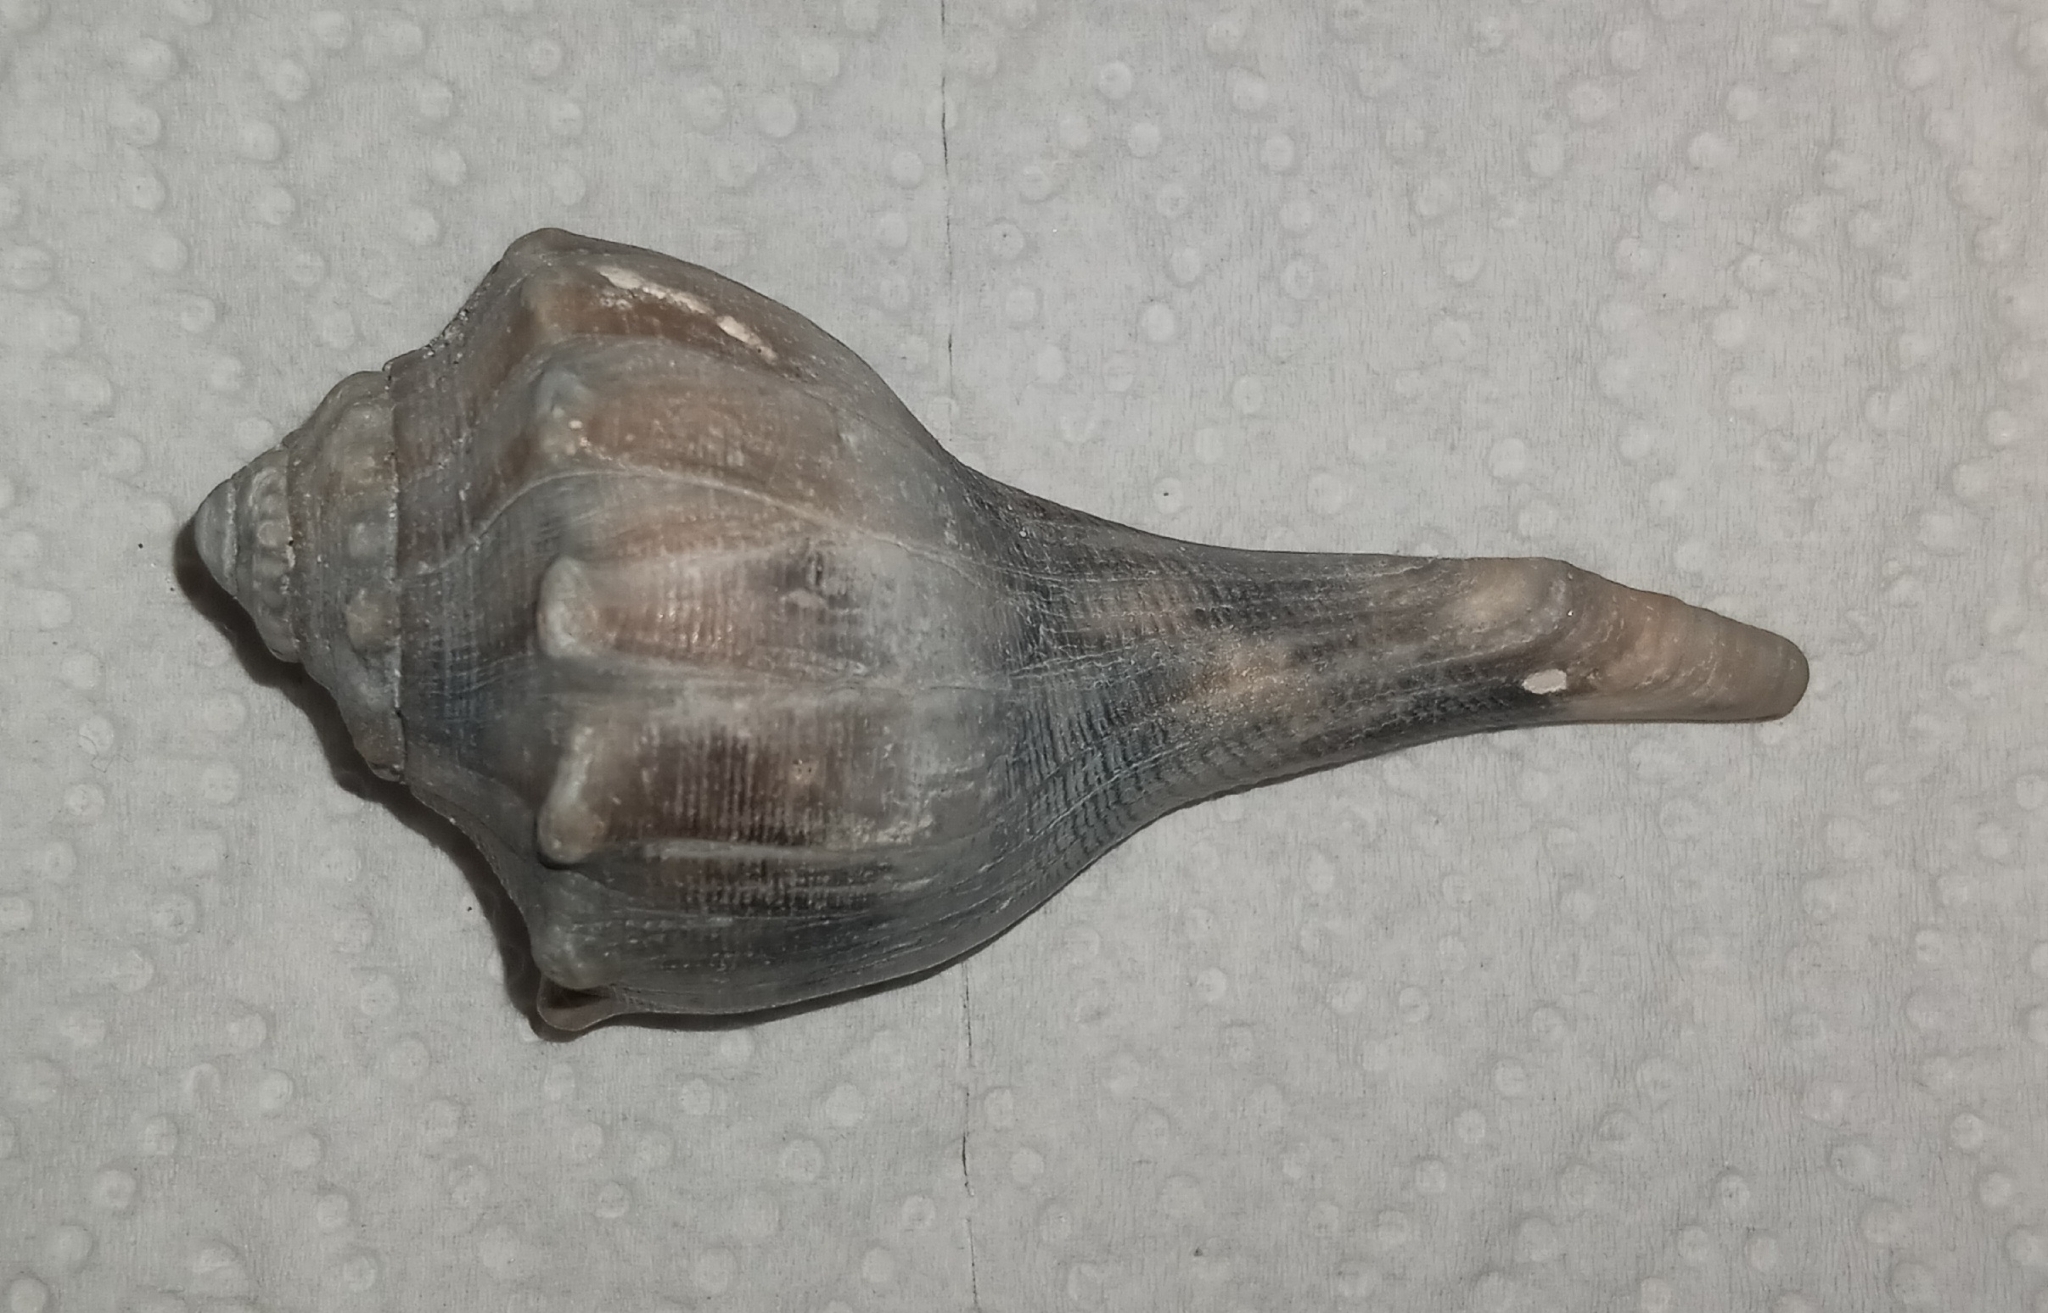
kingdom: Animalia
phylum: Mollusca
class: Gastropoda
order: Neogastropoda
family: Busyconidae
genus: Busycon
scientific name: Busycon carica
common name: Knobbed whelk
